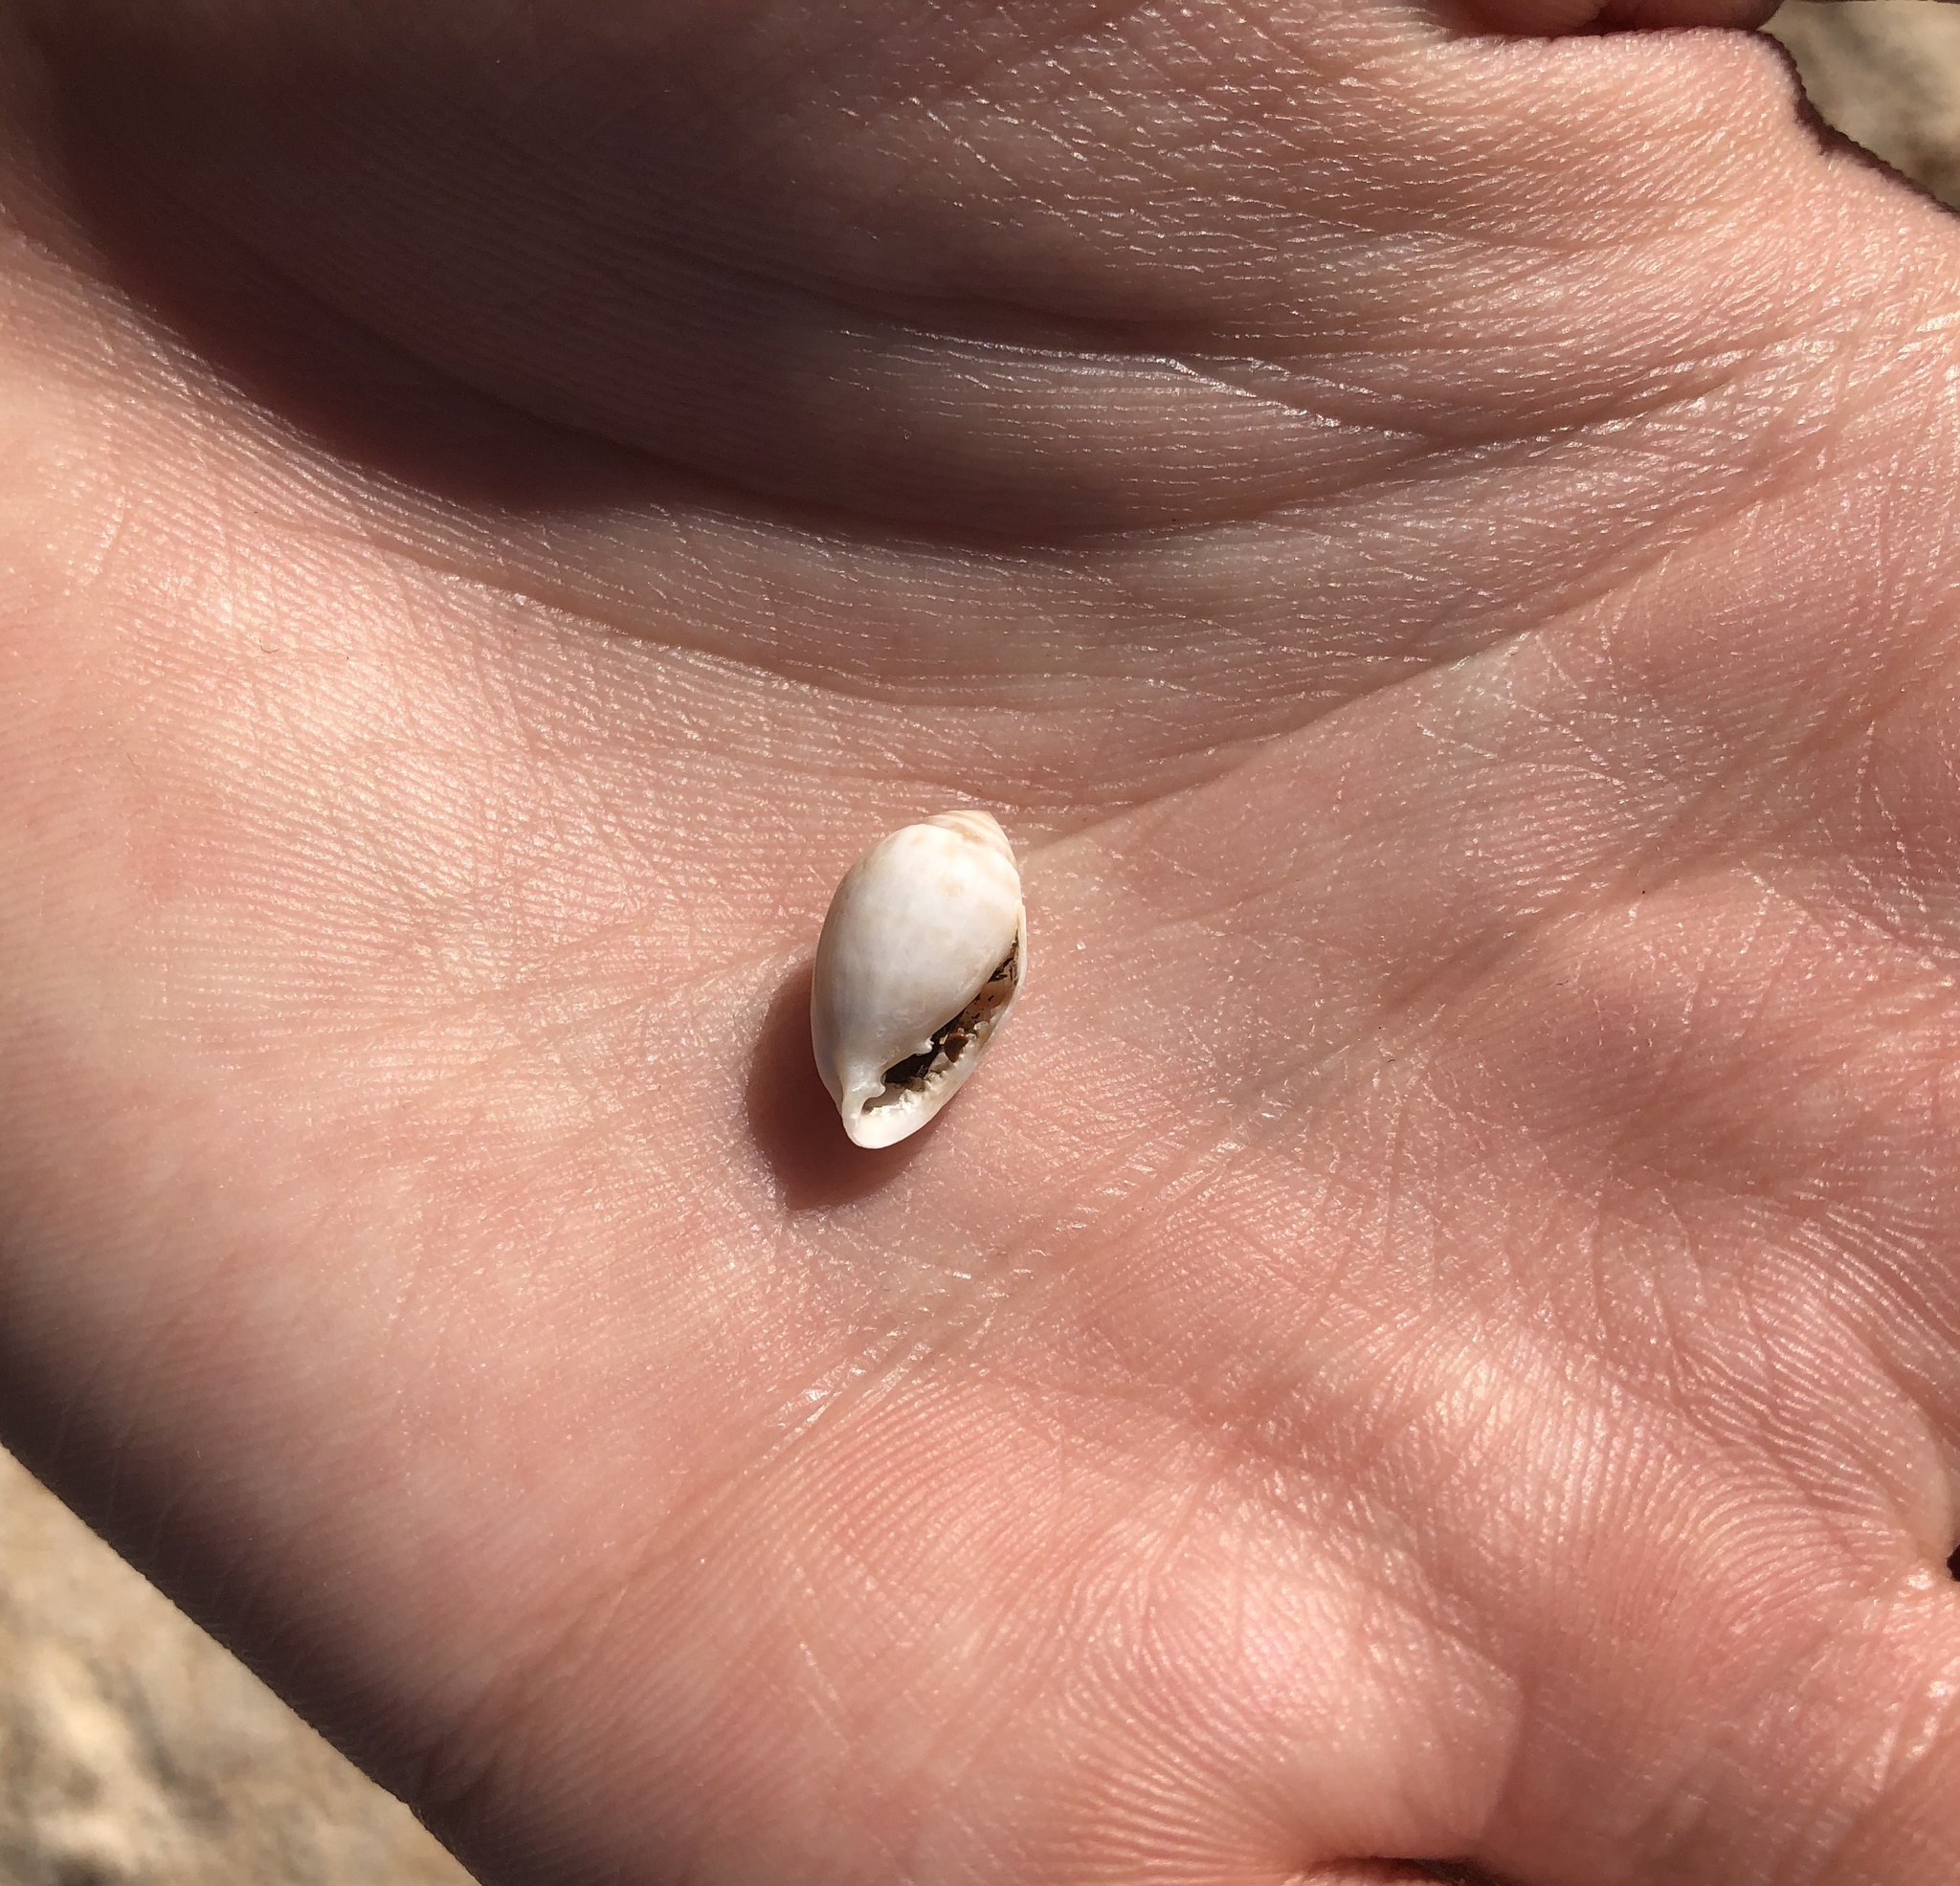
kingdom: Animalia
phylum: Mollusca
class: Gastropoda
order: Ellobiida
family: Ellobiidae
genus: Melampus
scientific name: Melampus coffea
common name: Coffee bean snail
